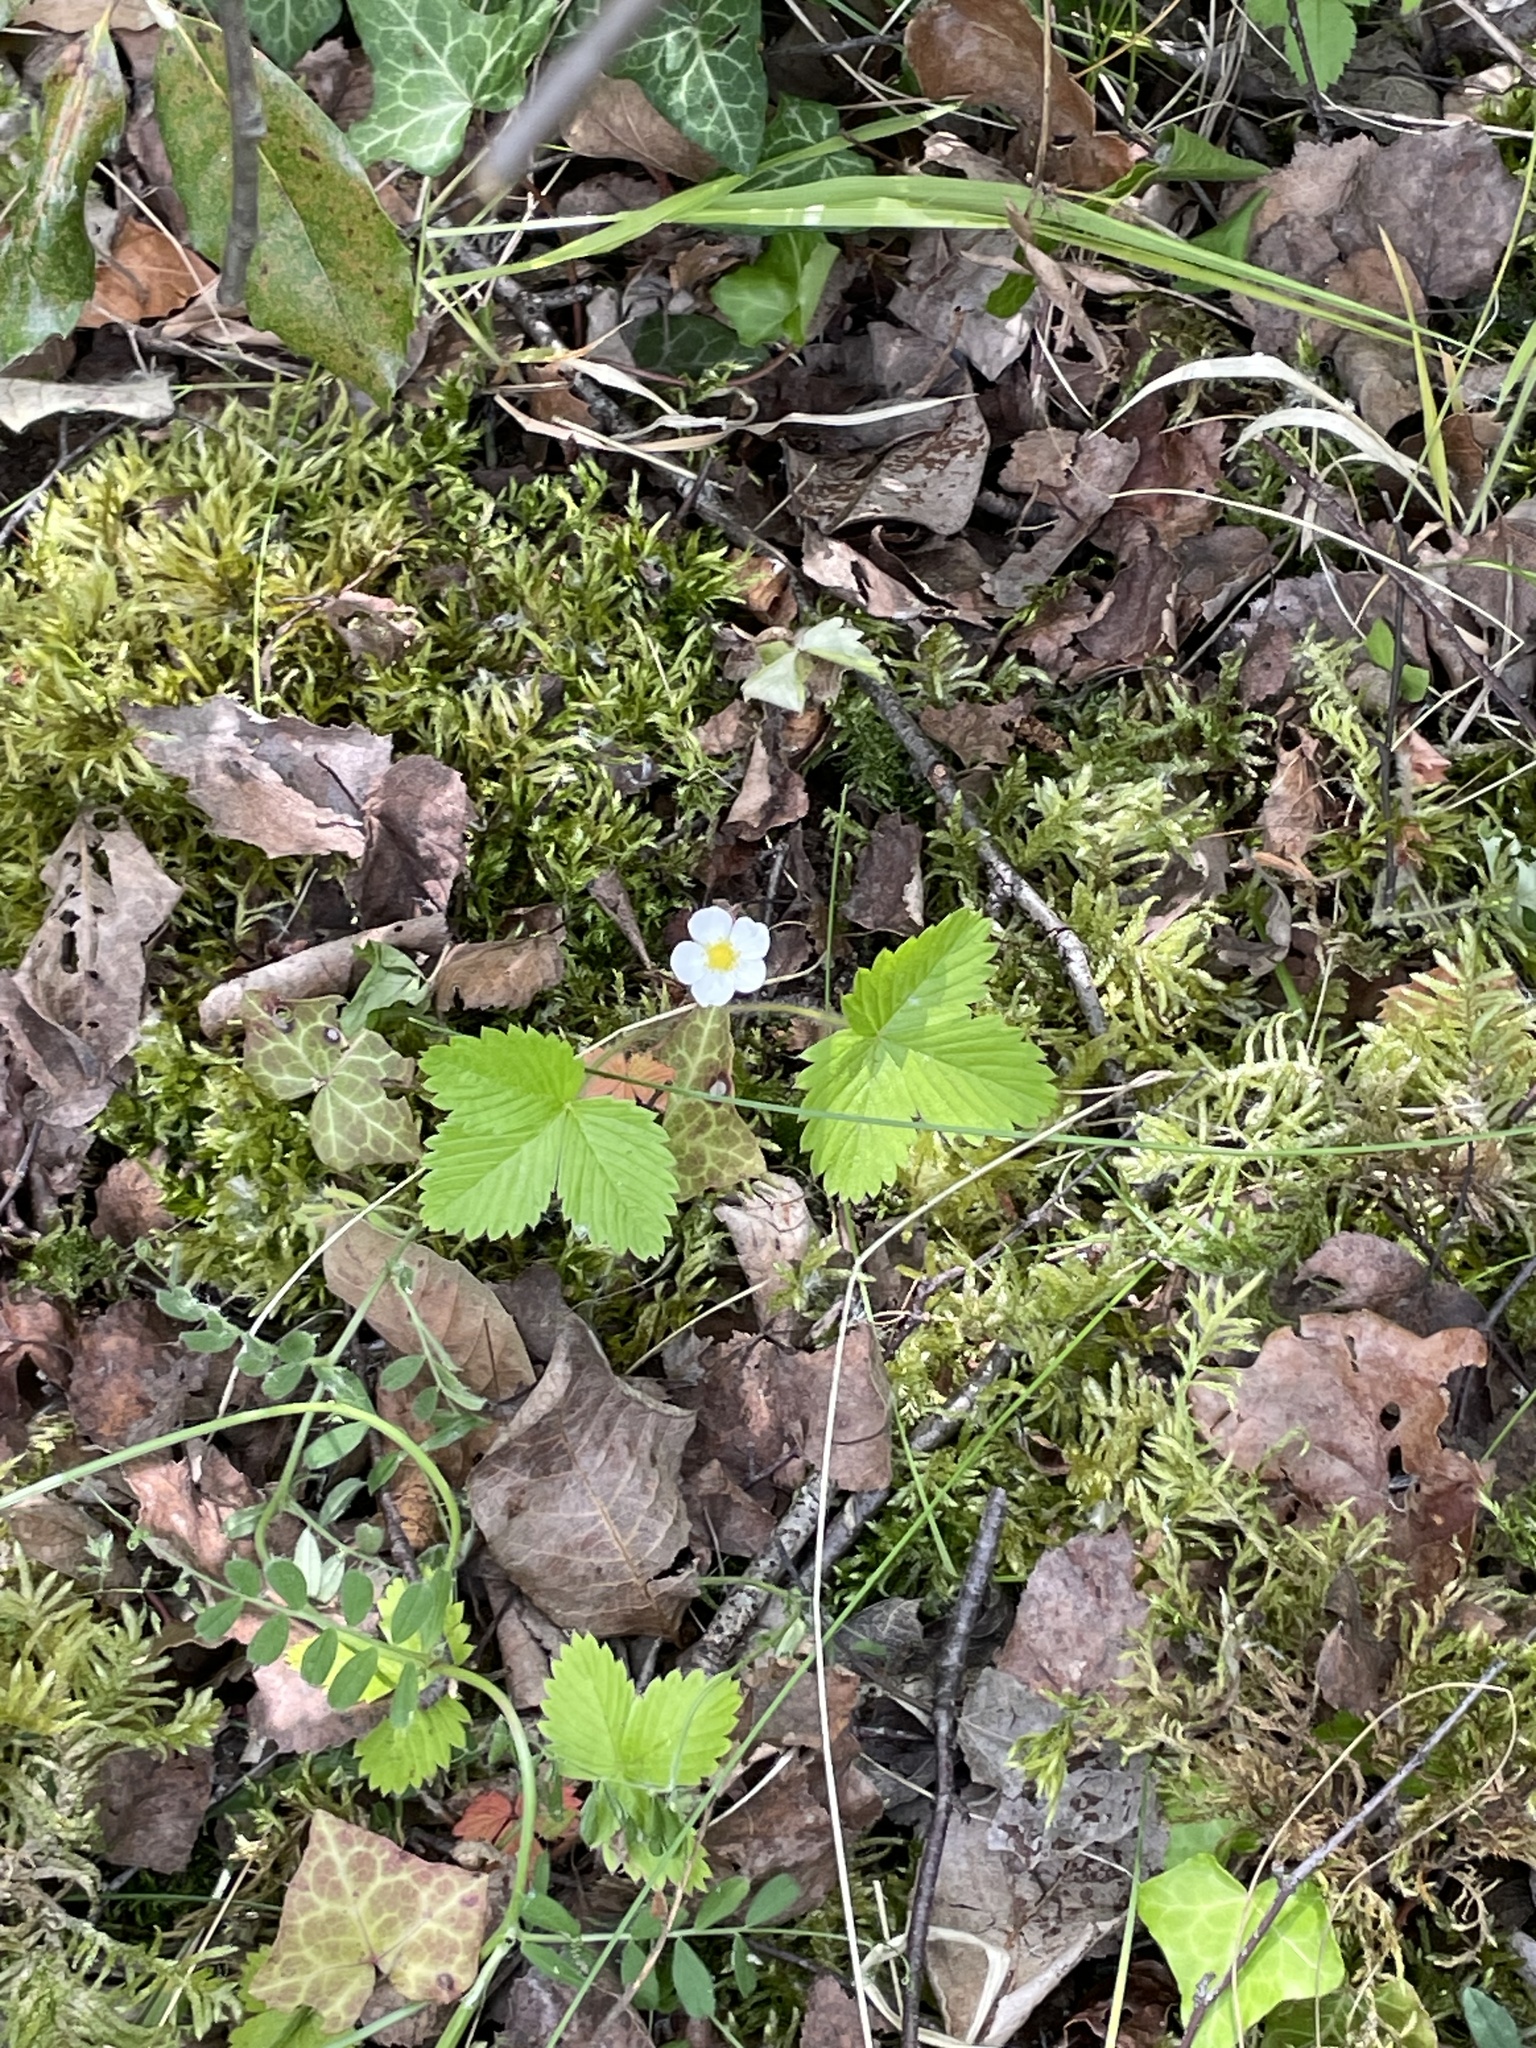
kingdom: Plantae
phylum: Tracheophyta
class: Magnoliopsida
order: Rosales
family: Rosaceae
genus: Fragaria
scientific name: Fragaria vesca
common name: Wild strawberry
